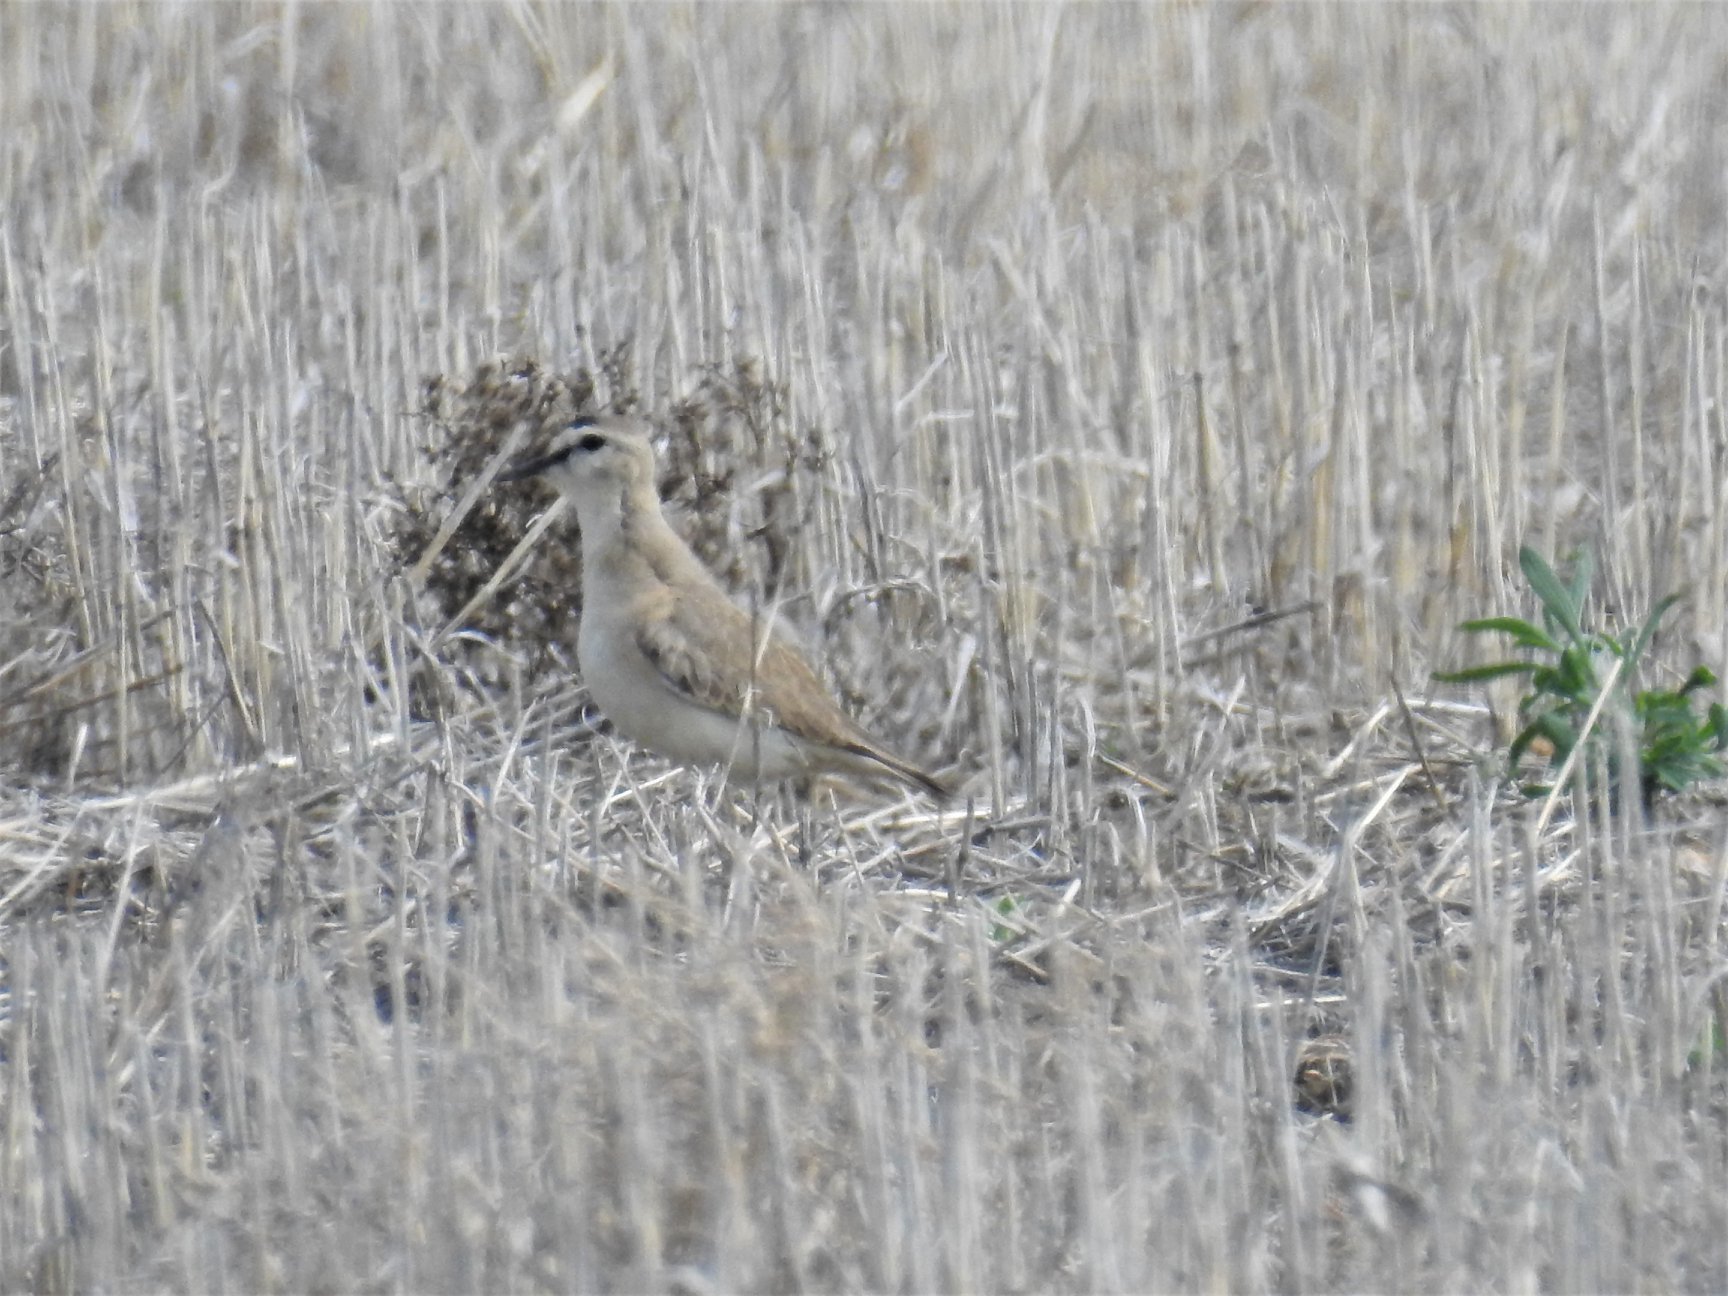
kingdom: Animalia
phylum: Chordata
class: Aves
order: Charadriiformes
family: Charadriidae
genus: Anarhynchus
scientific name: Anarhynchus
